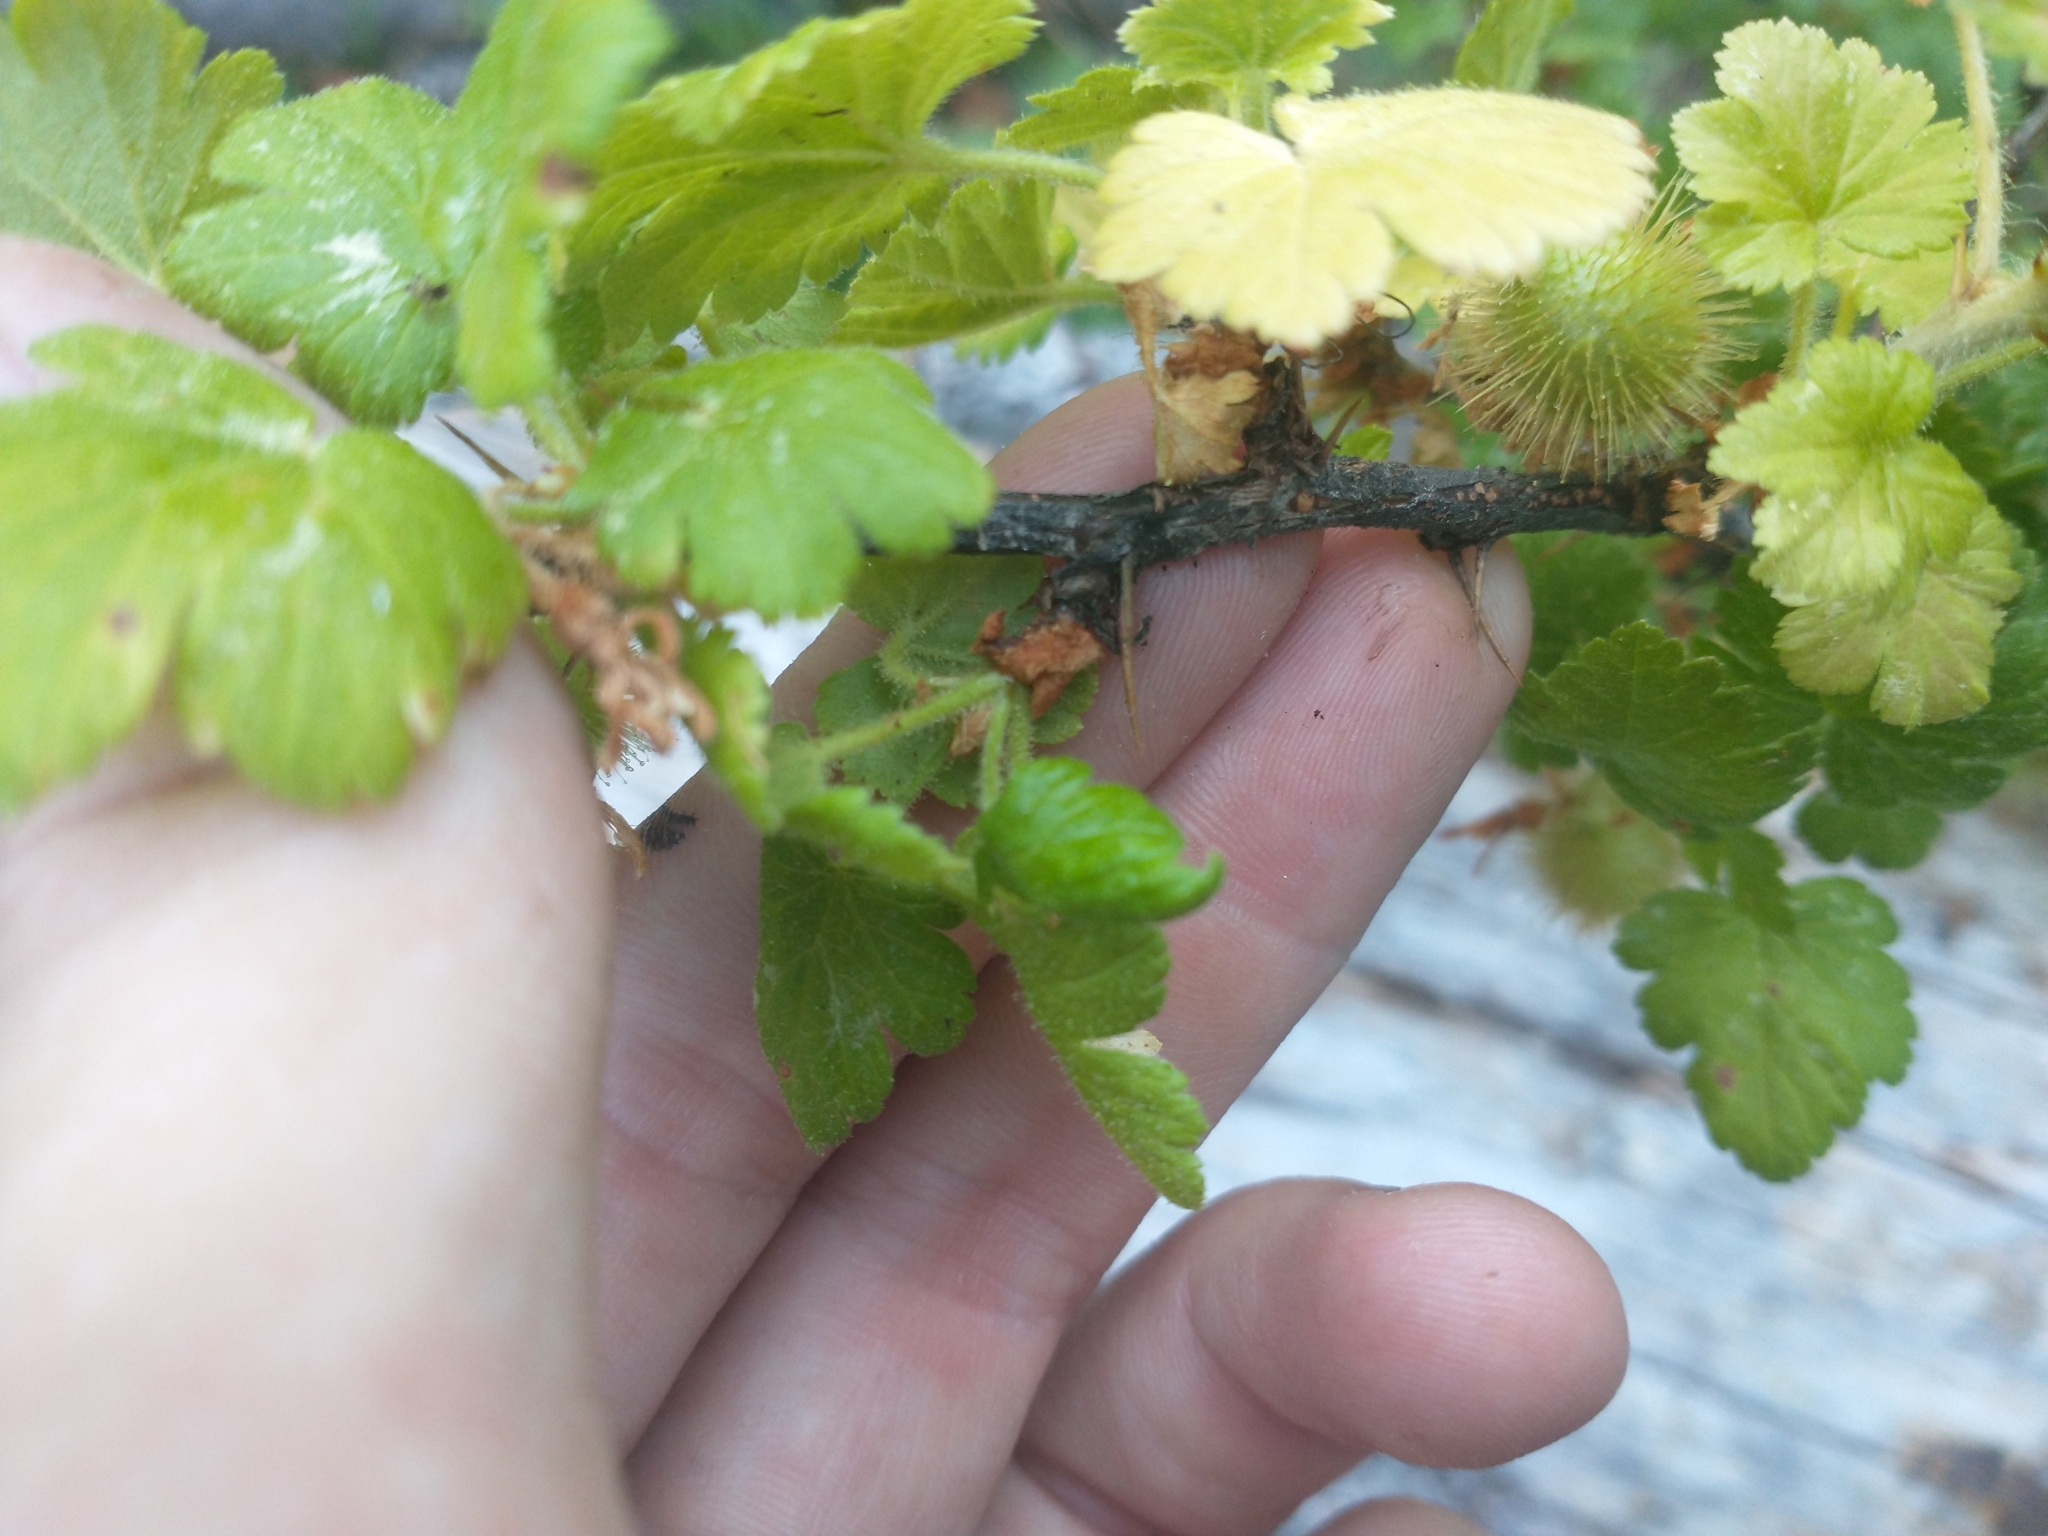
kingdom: Plantae
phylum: Tracheophyta
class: Magnoliopsida
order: Saxifragales
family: Grossulariaceae
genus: Ribes
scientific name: Ribes watsonianum
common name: Mount adams gooseberry
